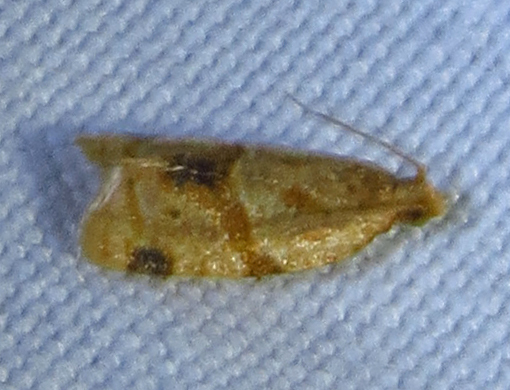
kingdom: Animalia
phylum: Arthropoda
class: Insecta
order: Lepidoptera
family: Tortricidae
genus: Clepsis
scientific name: Clepsis peritana
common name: Garden tortrix
